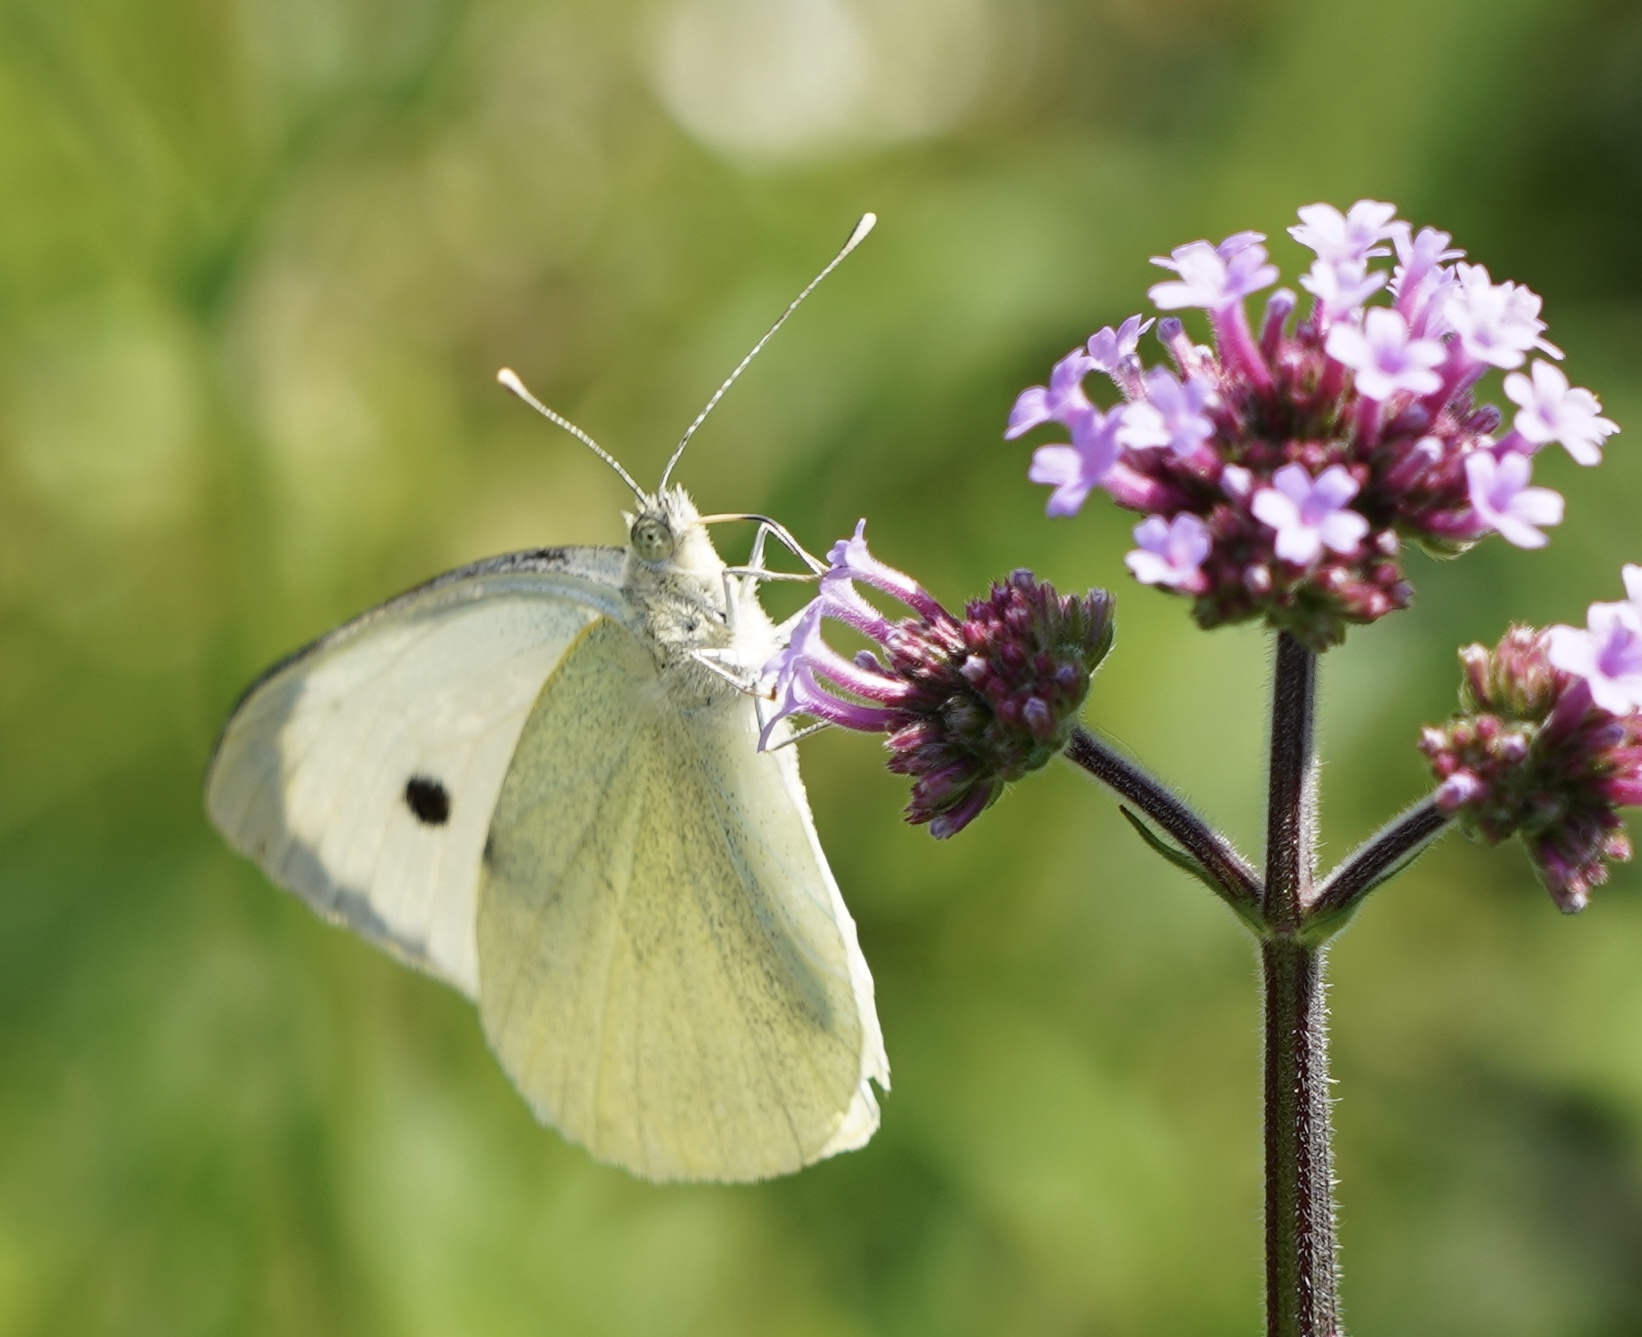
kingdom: Animalia
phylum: Arthropoda
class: Insecta
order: Lepidoptera
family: Pieridae
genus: Pieris
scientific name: Pieris brassicae
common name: Large white
